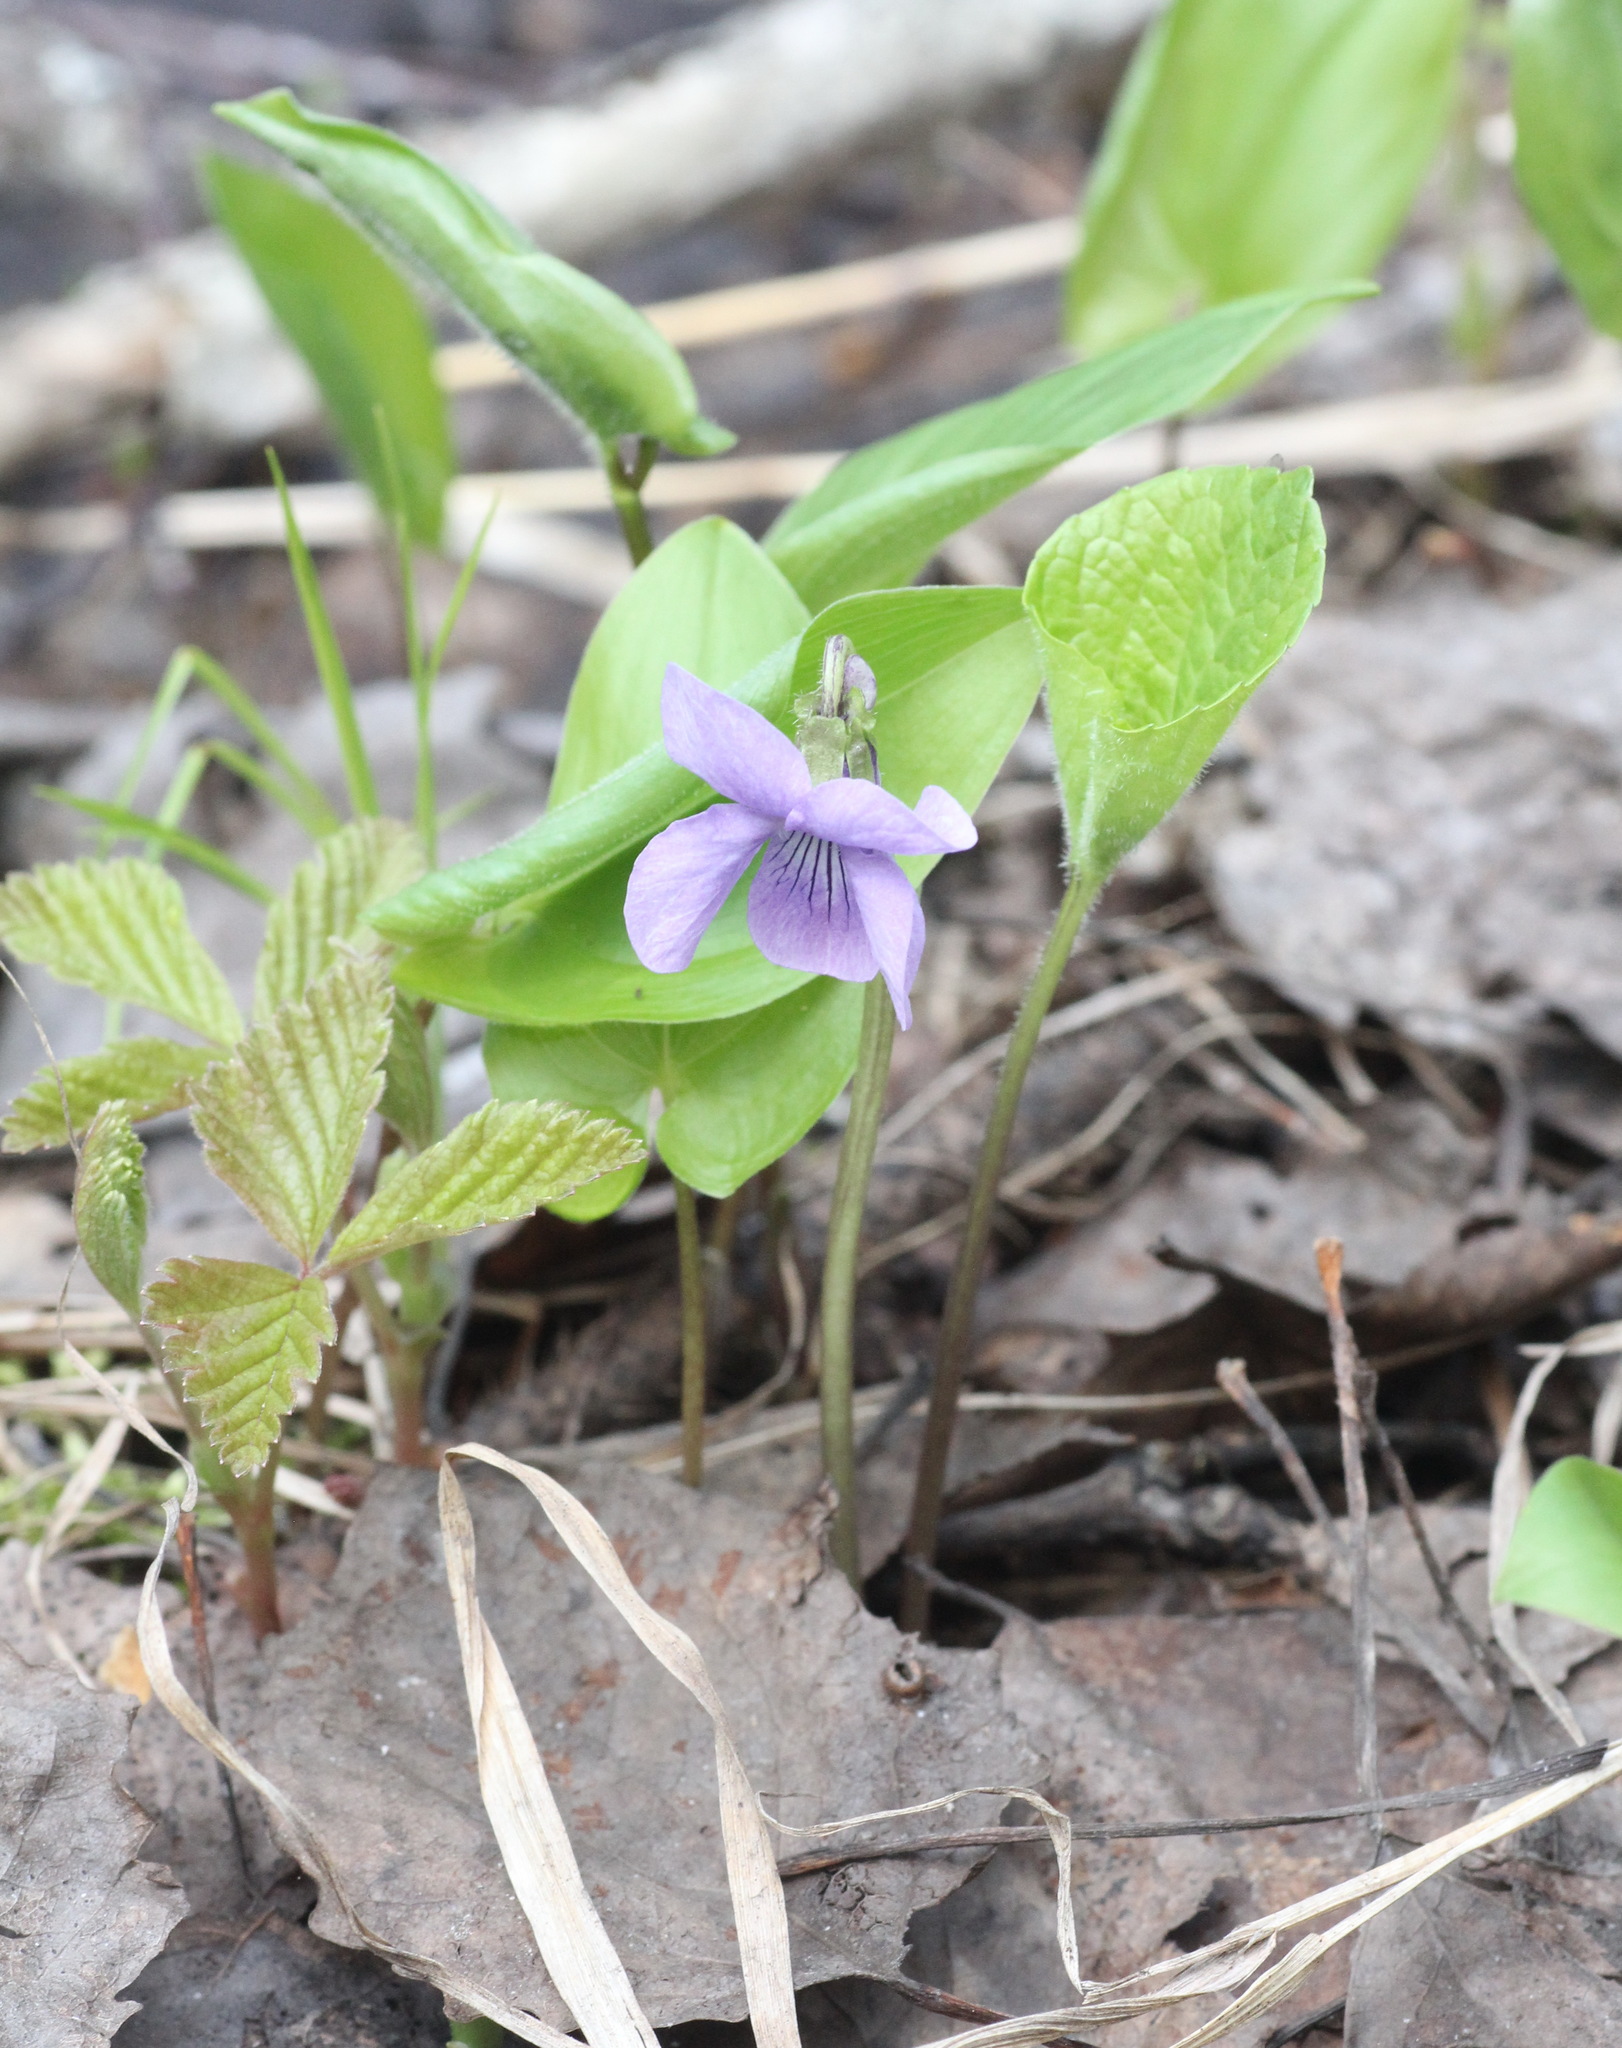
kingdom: Plantae
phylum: Tracheophyta
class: Magnoliopsida
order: Malpighiales
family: Violaceae
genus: Viola
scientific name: Viola epipsila
